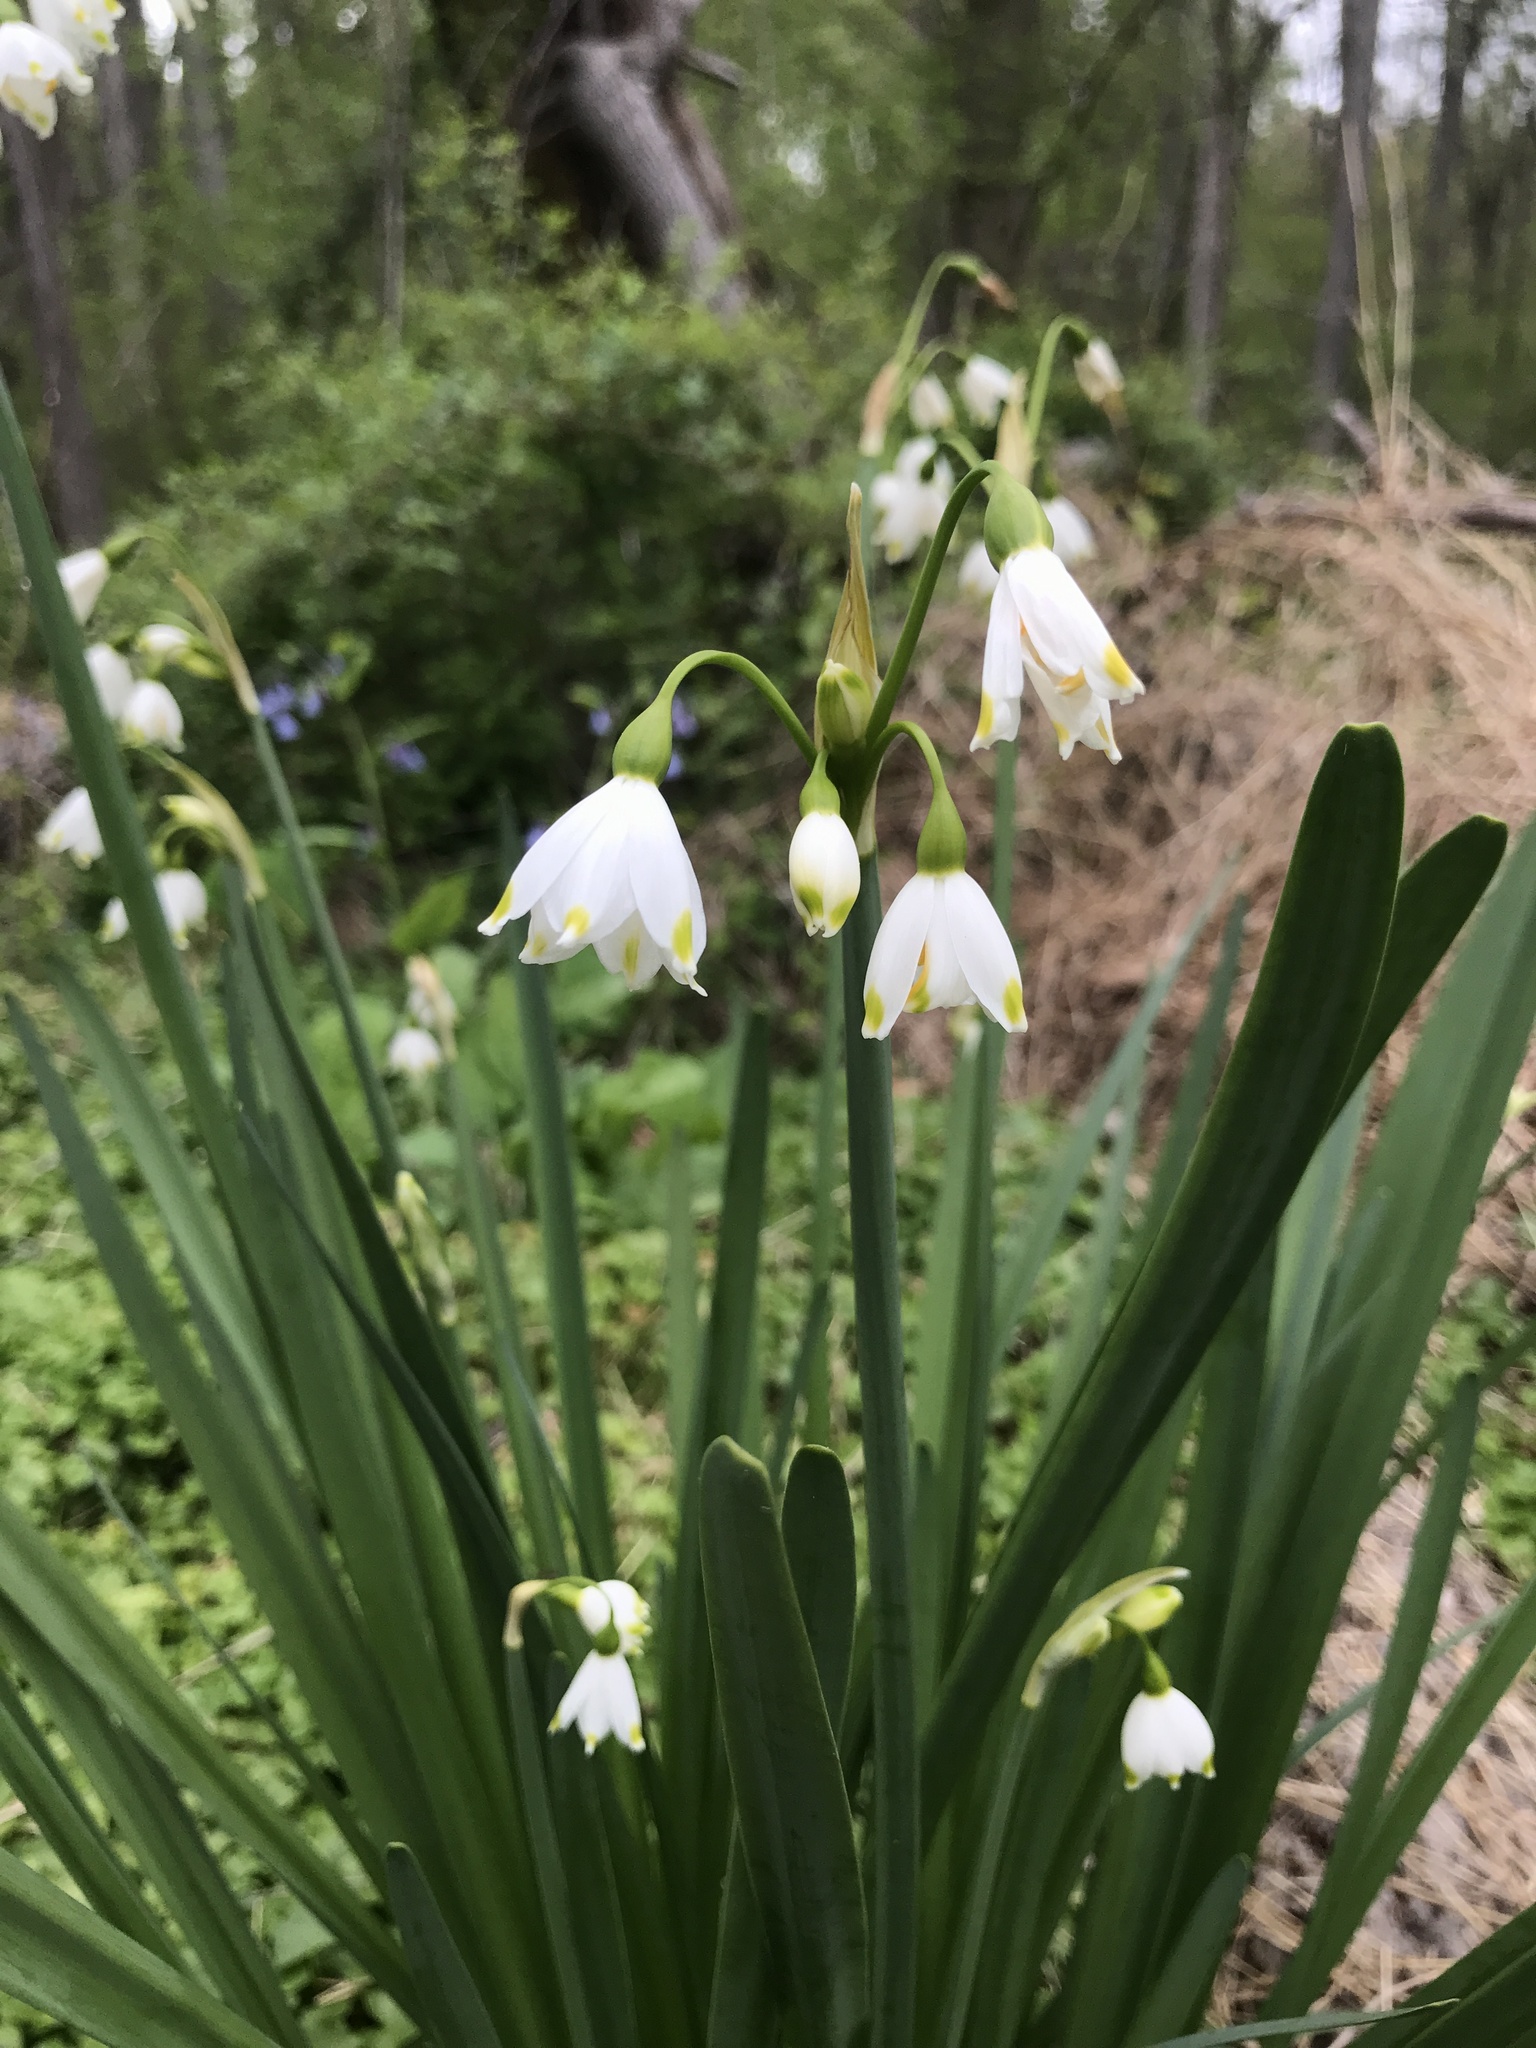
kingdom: Plantae
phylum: Tracheophyta
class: Liliopsida
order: Asparagales
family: Amaryllidaceae
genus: Leucojum
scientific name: Leucojum aestivum
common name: Summer snowflake
